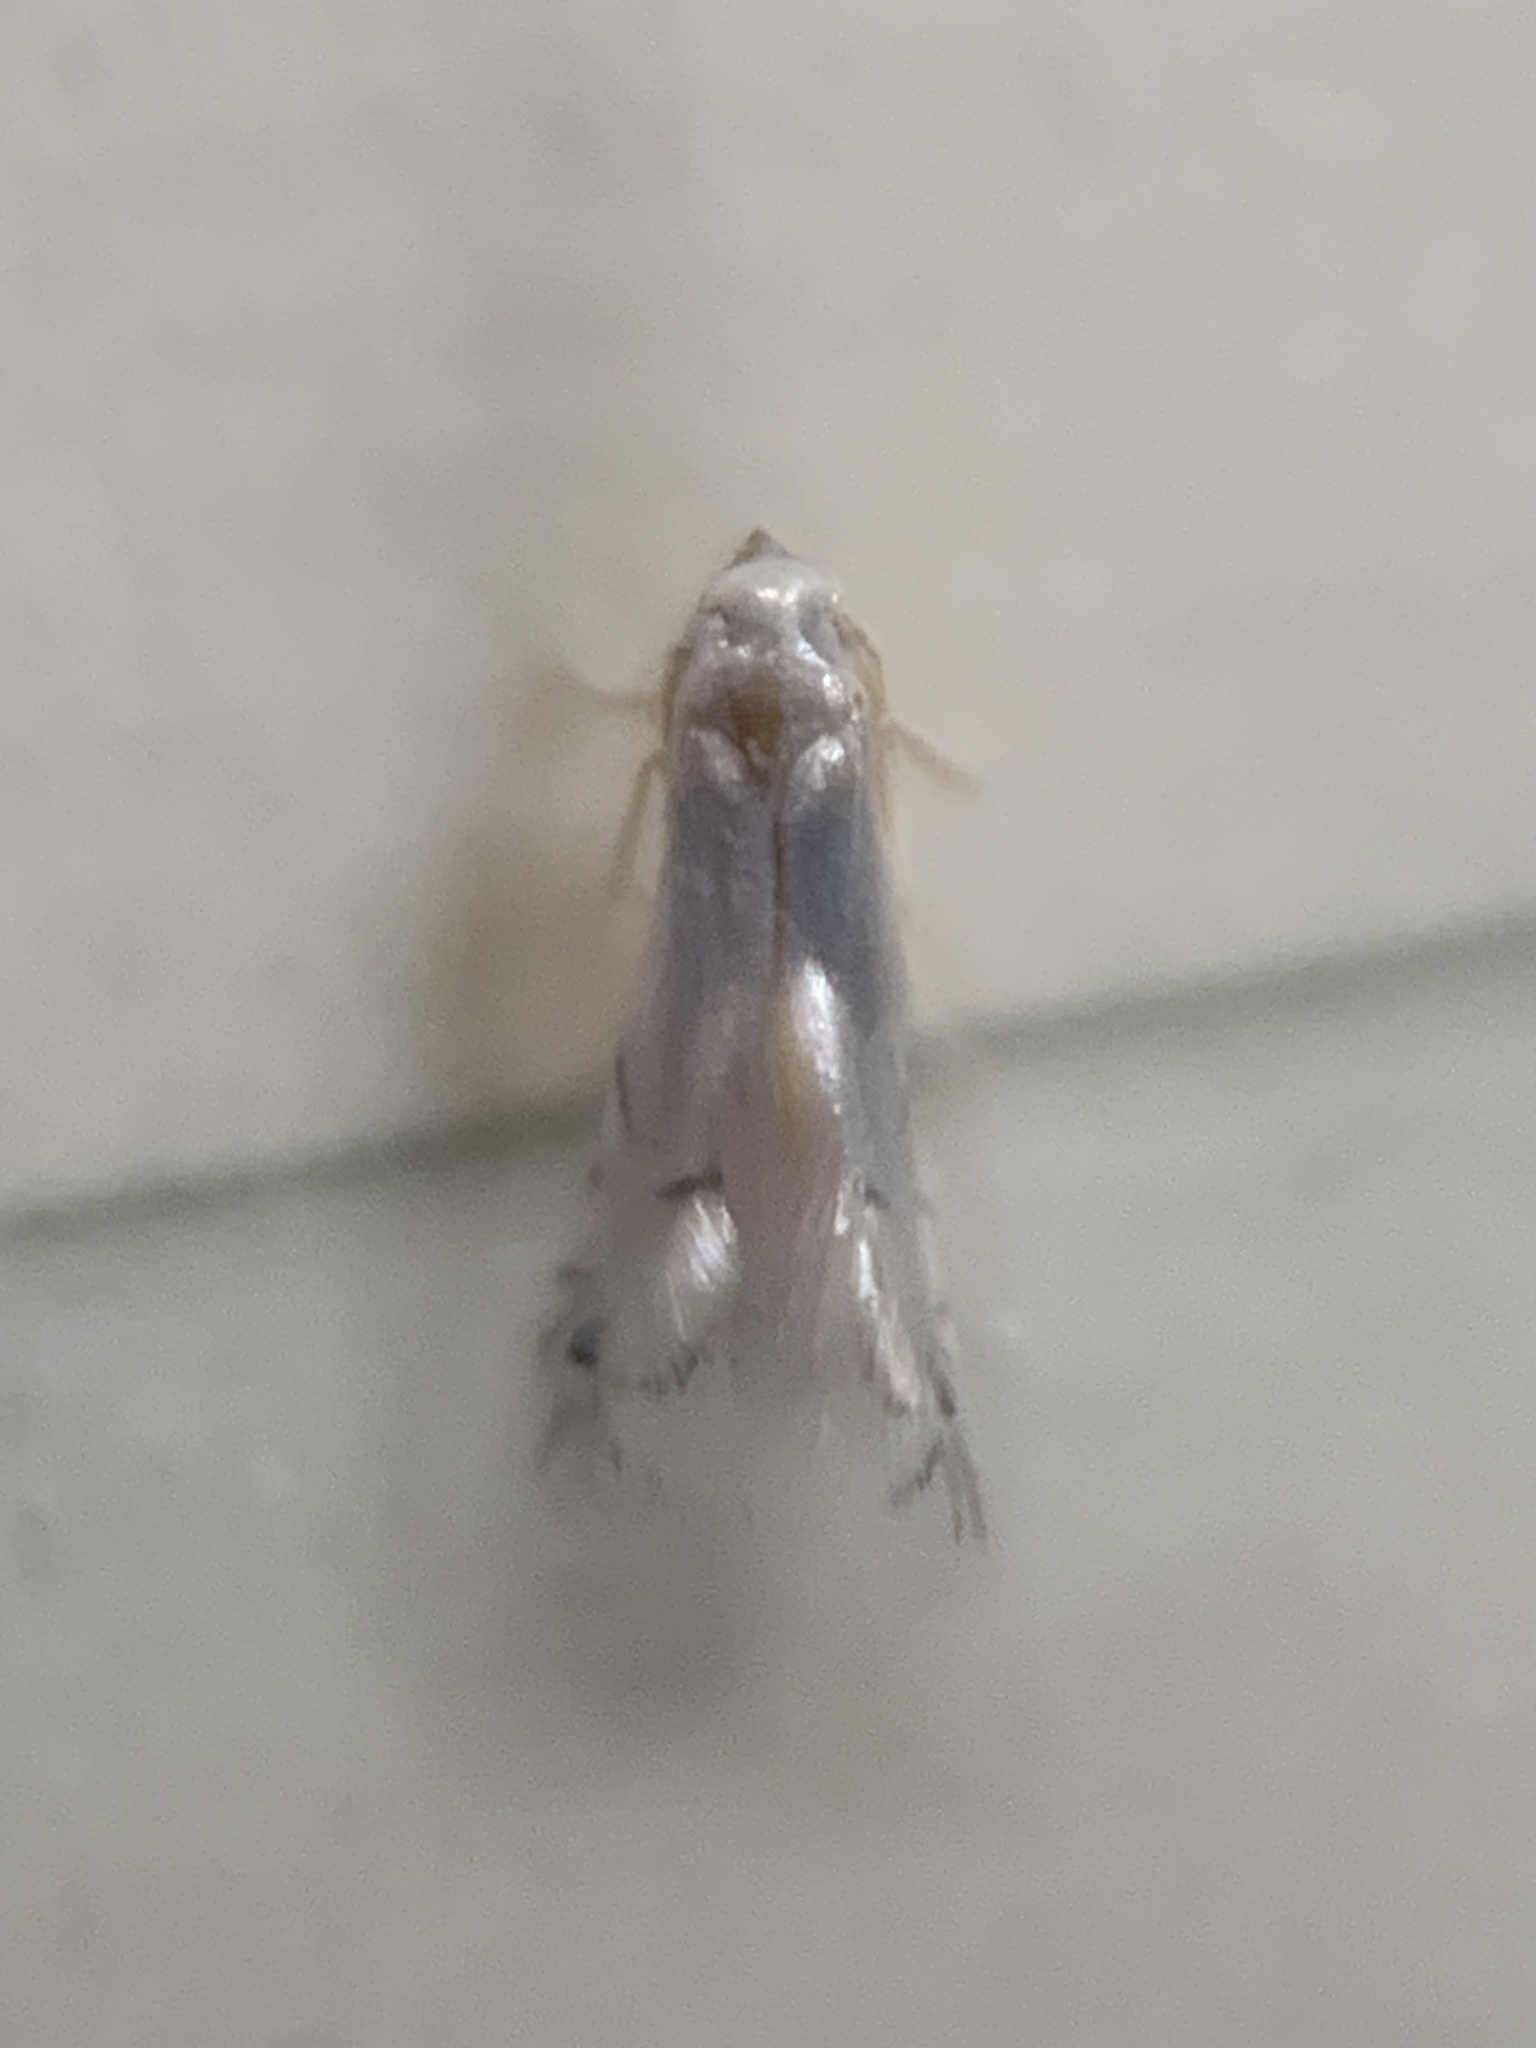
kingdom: Animalia
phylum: Arthropoda
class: Insecta
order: Lepidoptera
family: Gracillariidae
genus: Phyllocnistis
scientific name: Phyllocnistis vitegenella
